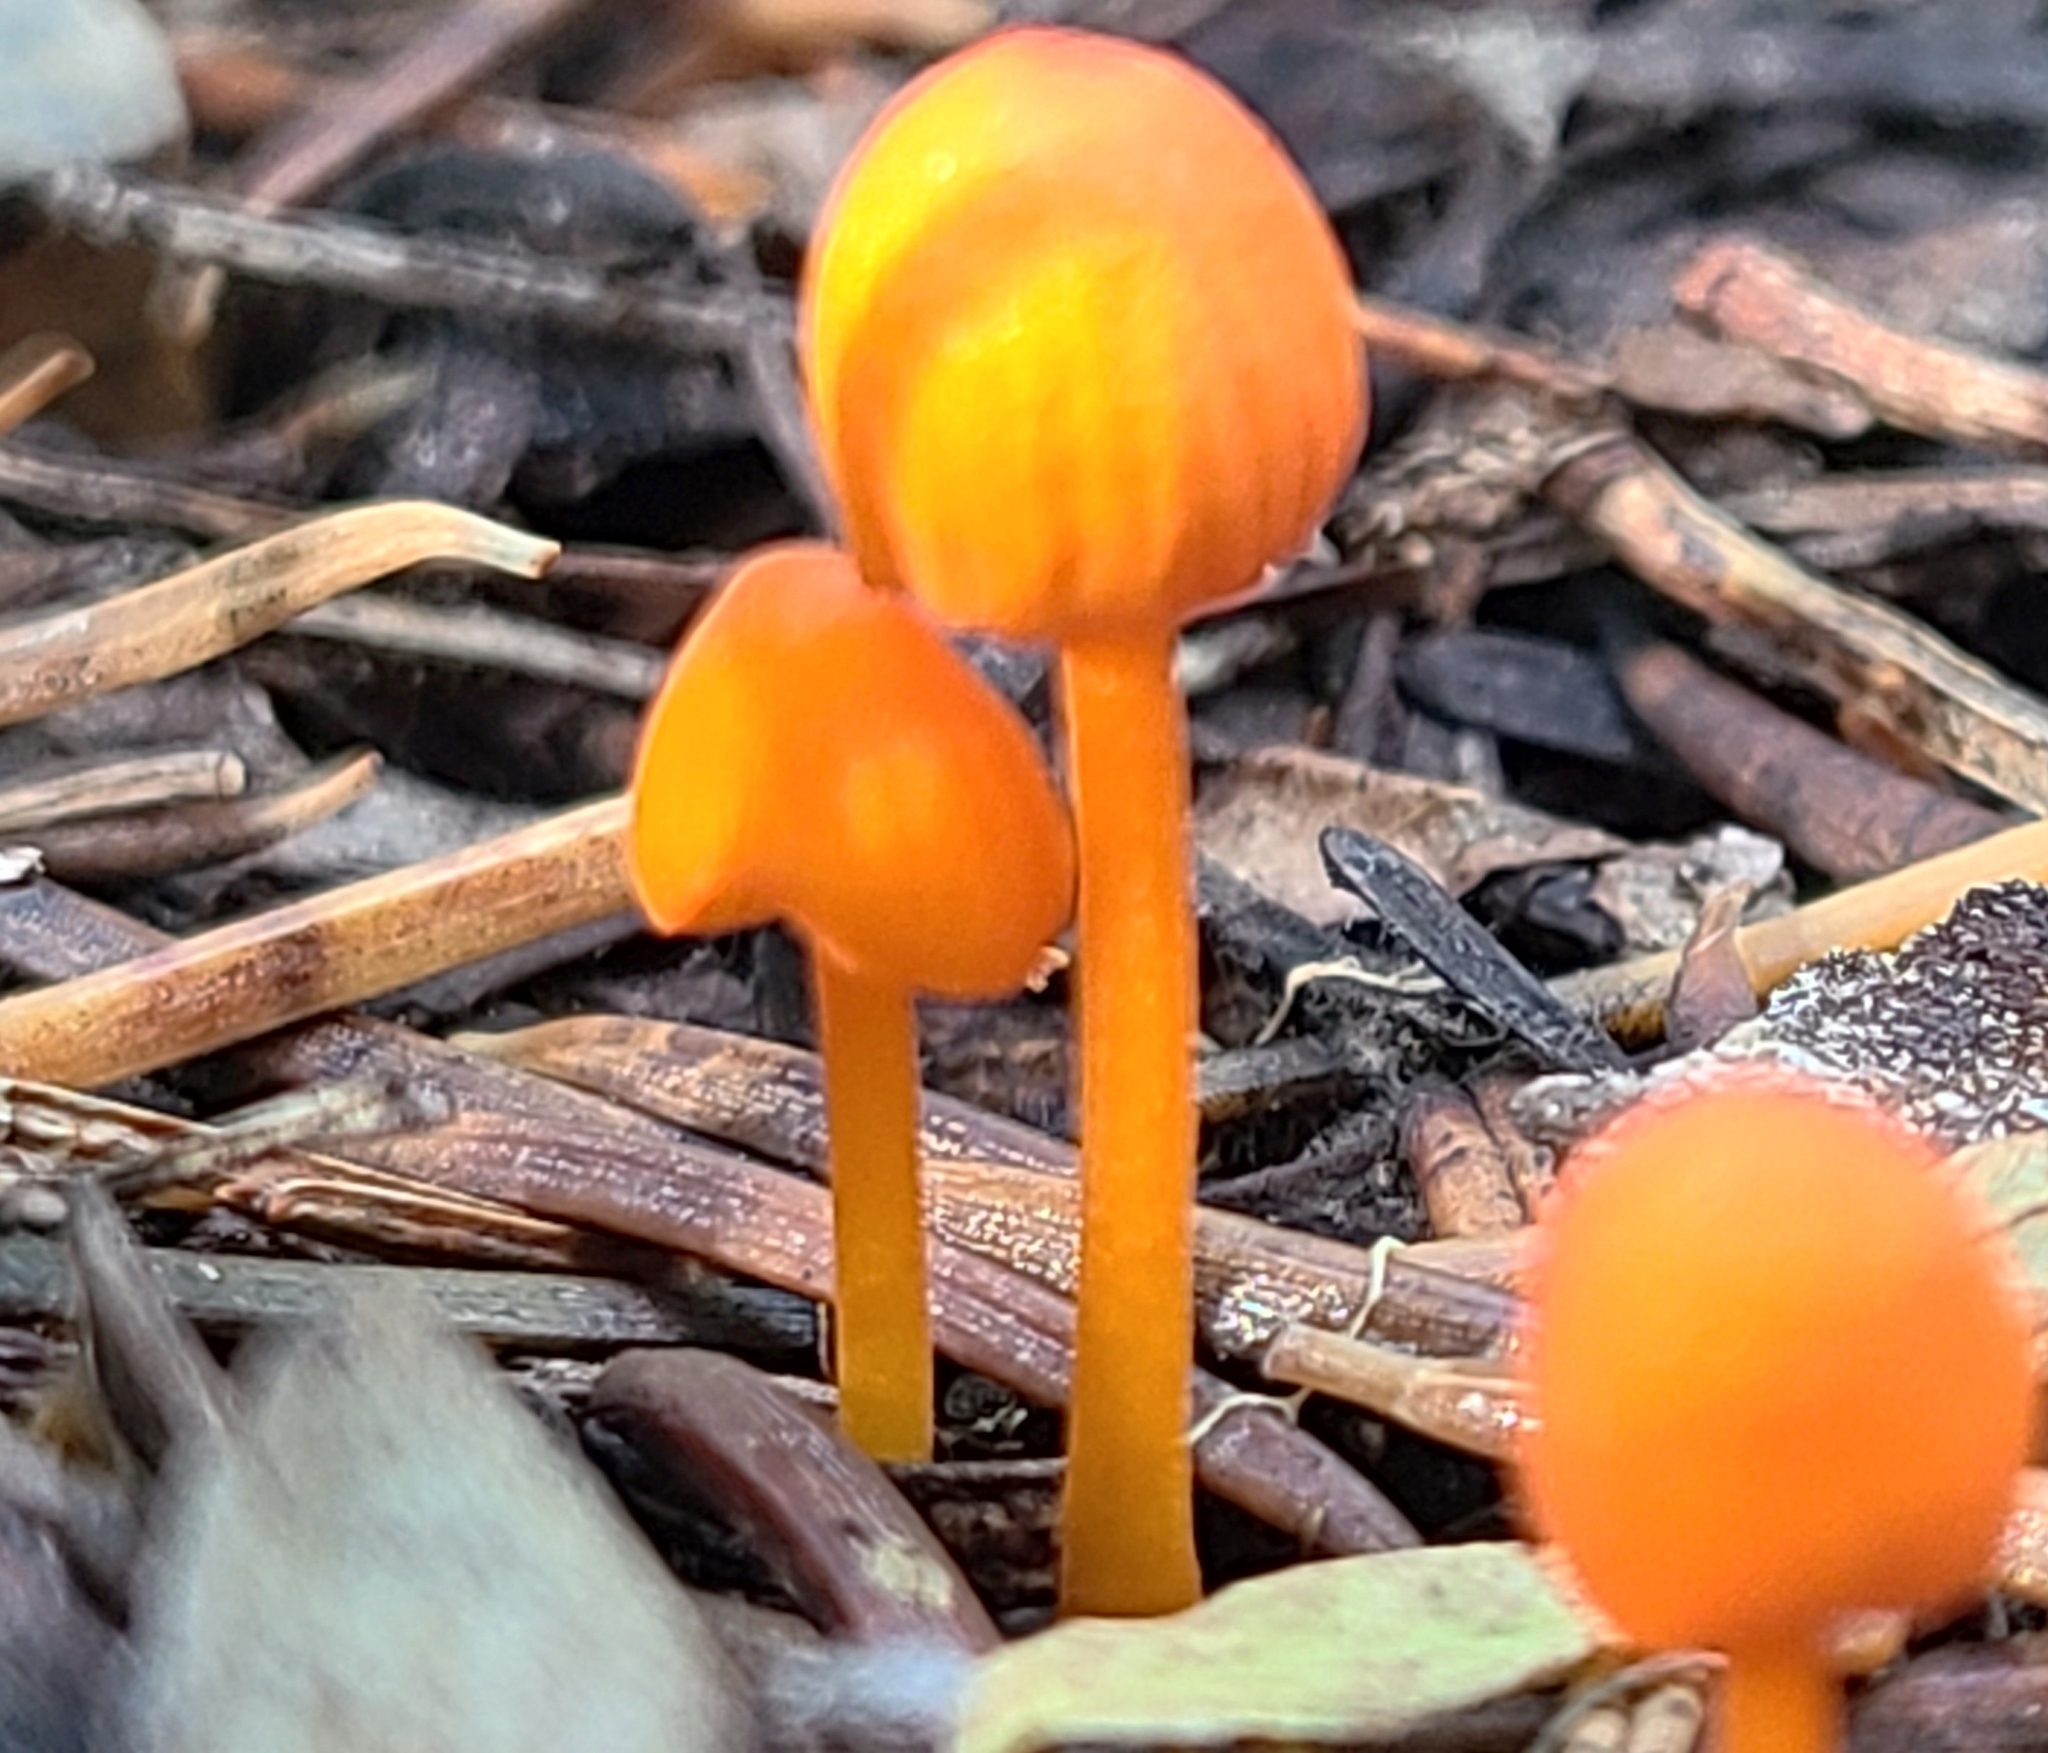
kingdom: Fungi
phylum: Basidiomycota
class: Agaricomycetes
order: Agaricales
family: Mycenaceae
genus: Mycena
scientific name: Mycena strobilinoidea
